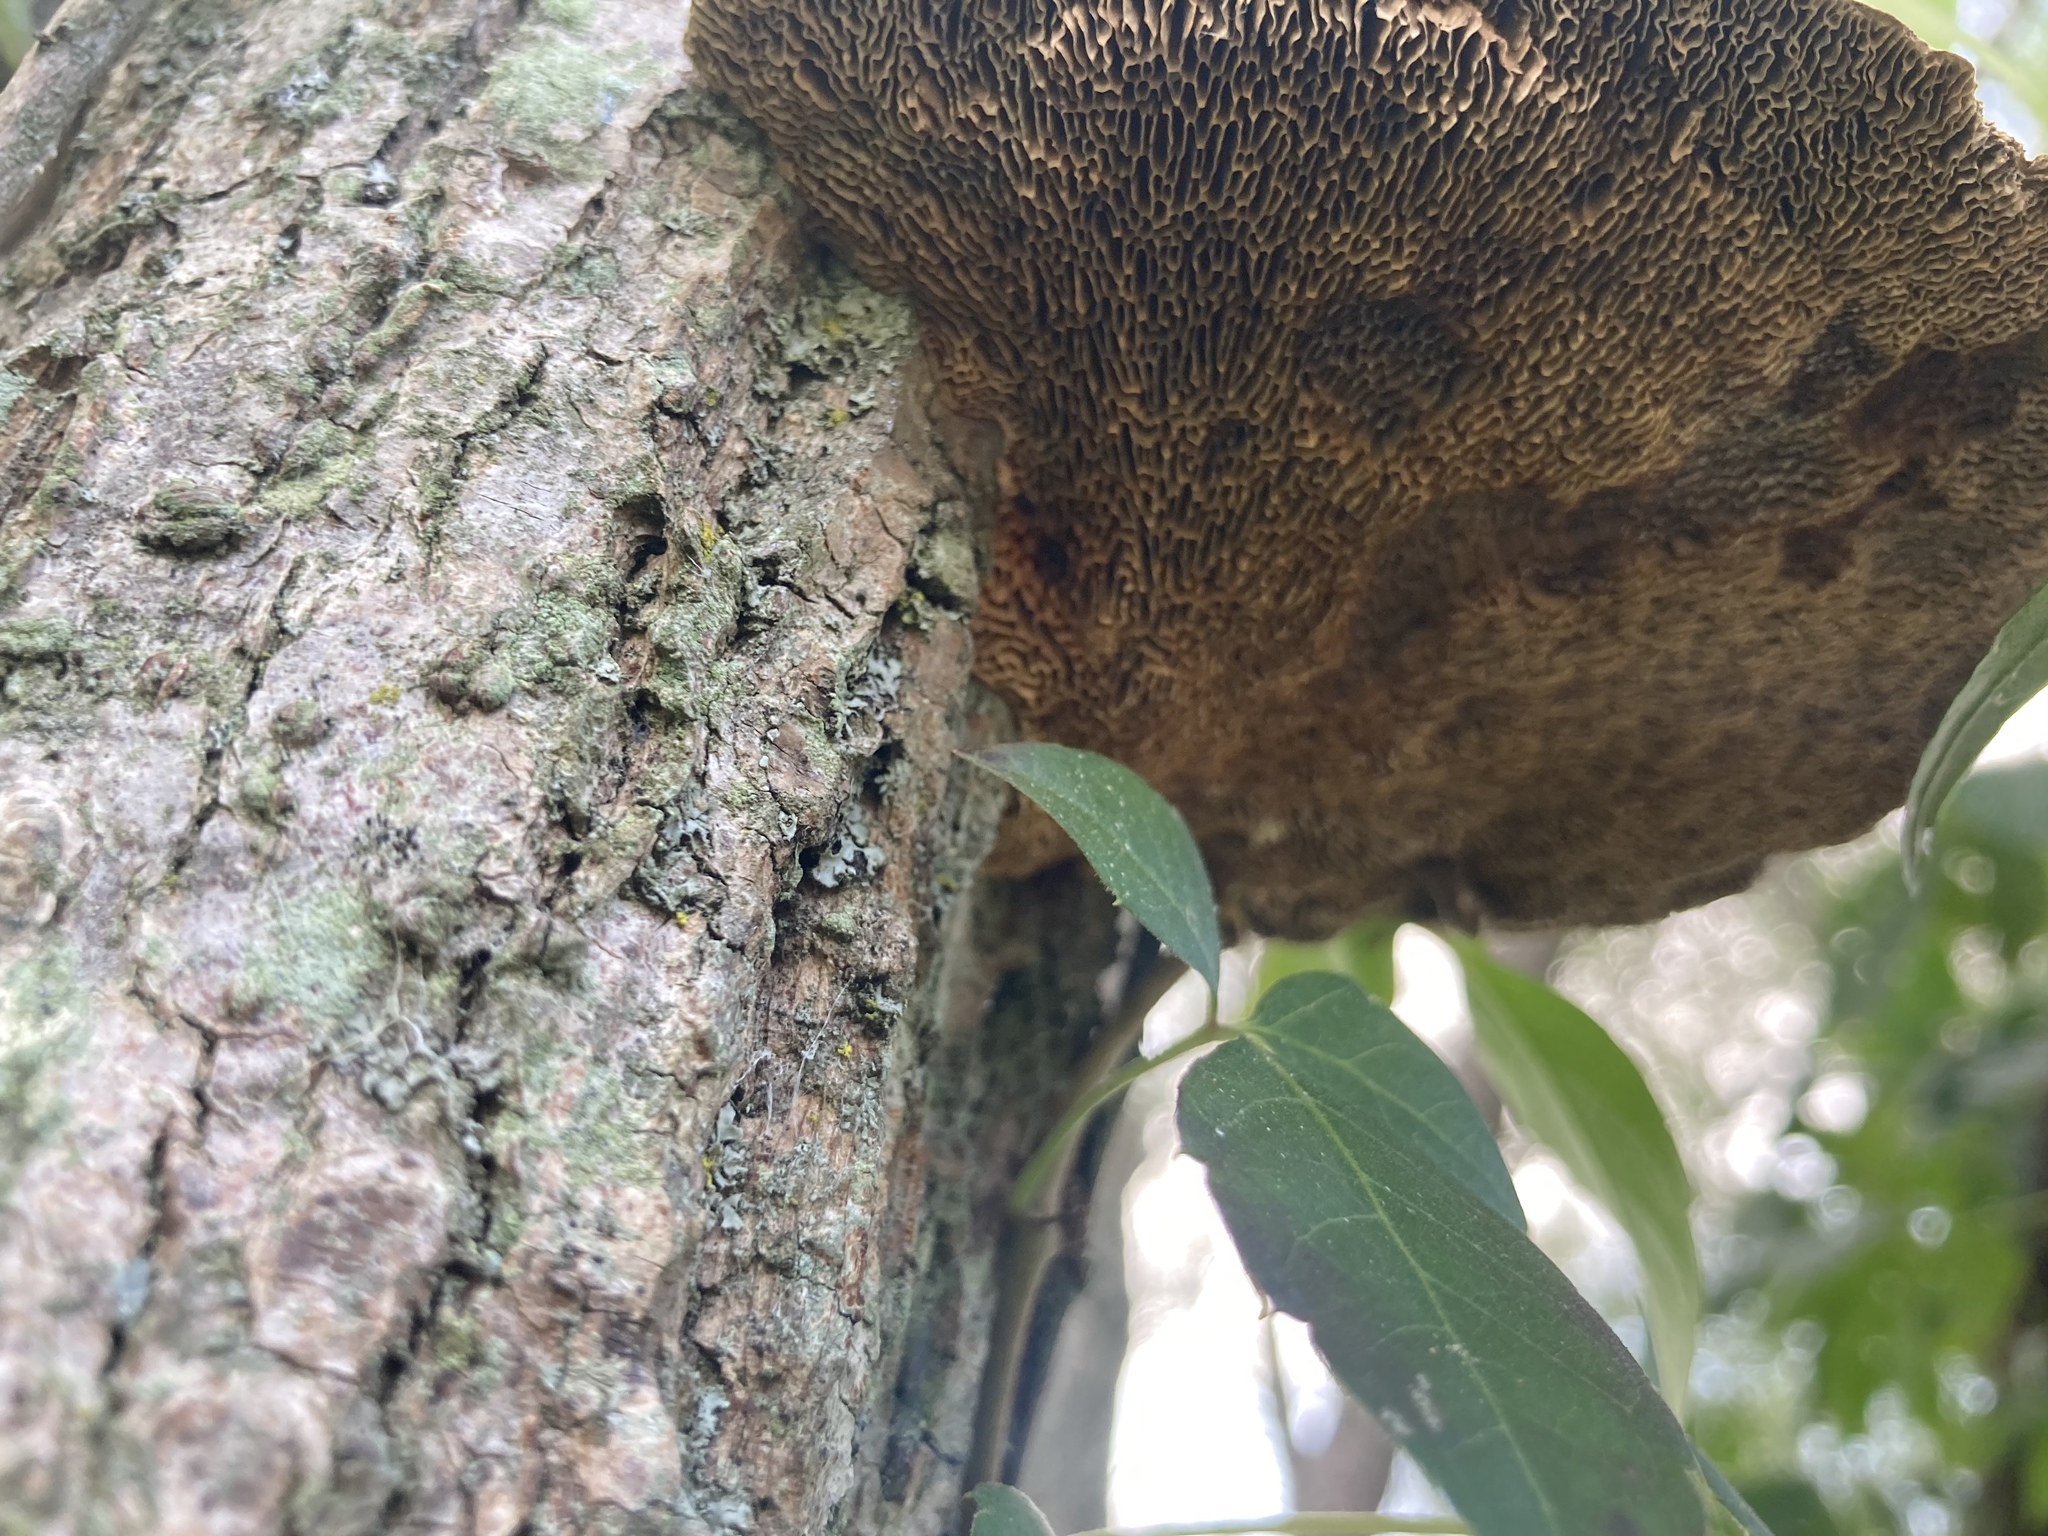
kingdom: Fungi
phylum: Basidiomycota
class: Agaricomycetes
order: Polyporales
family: Polyporaceae
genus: Daedaleopsis
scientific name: Daedaleopsis confragosa
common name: Blushing bracket
